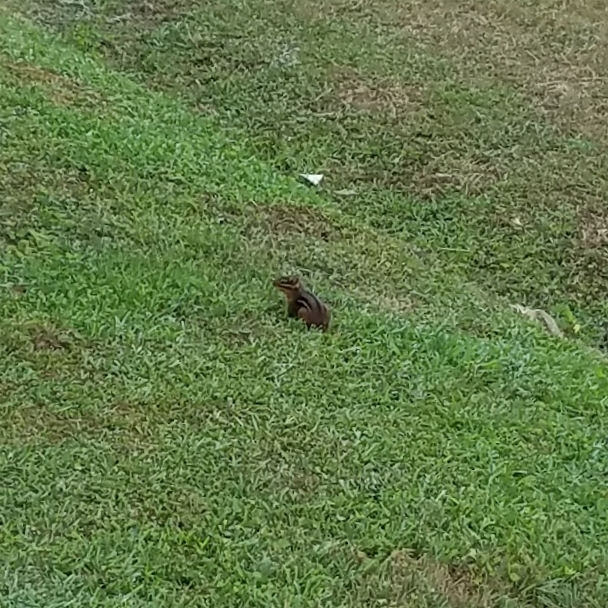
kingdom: Animalia
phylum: Chordata
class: Mammalia
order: Rodentia
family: Sciuridae
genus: Tamias
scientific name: Tamias striatus
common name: Eastern chipmunk
